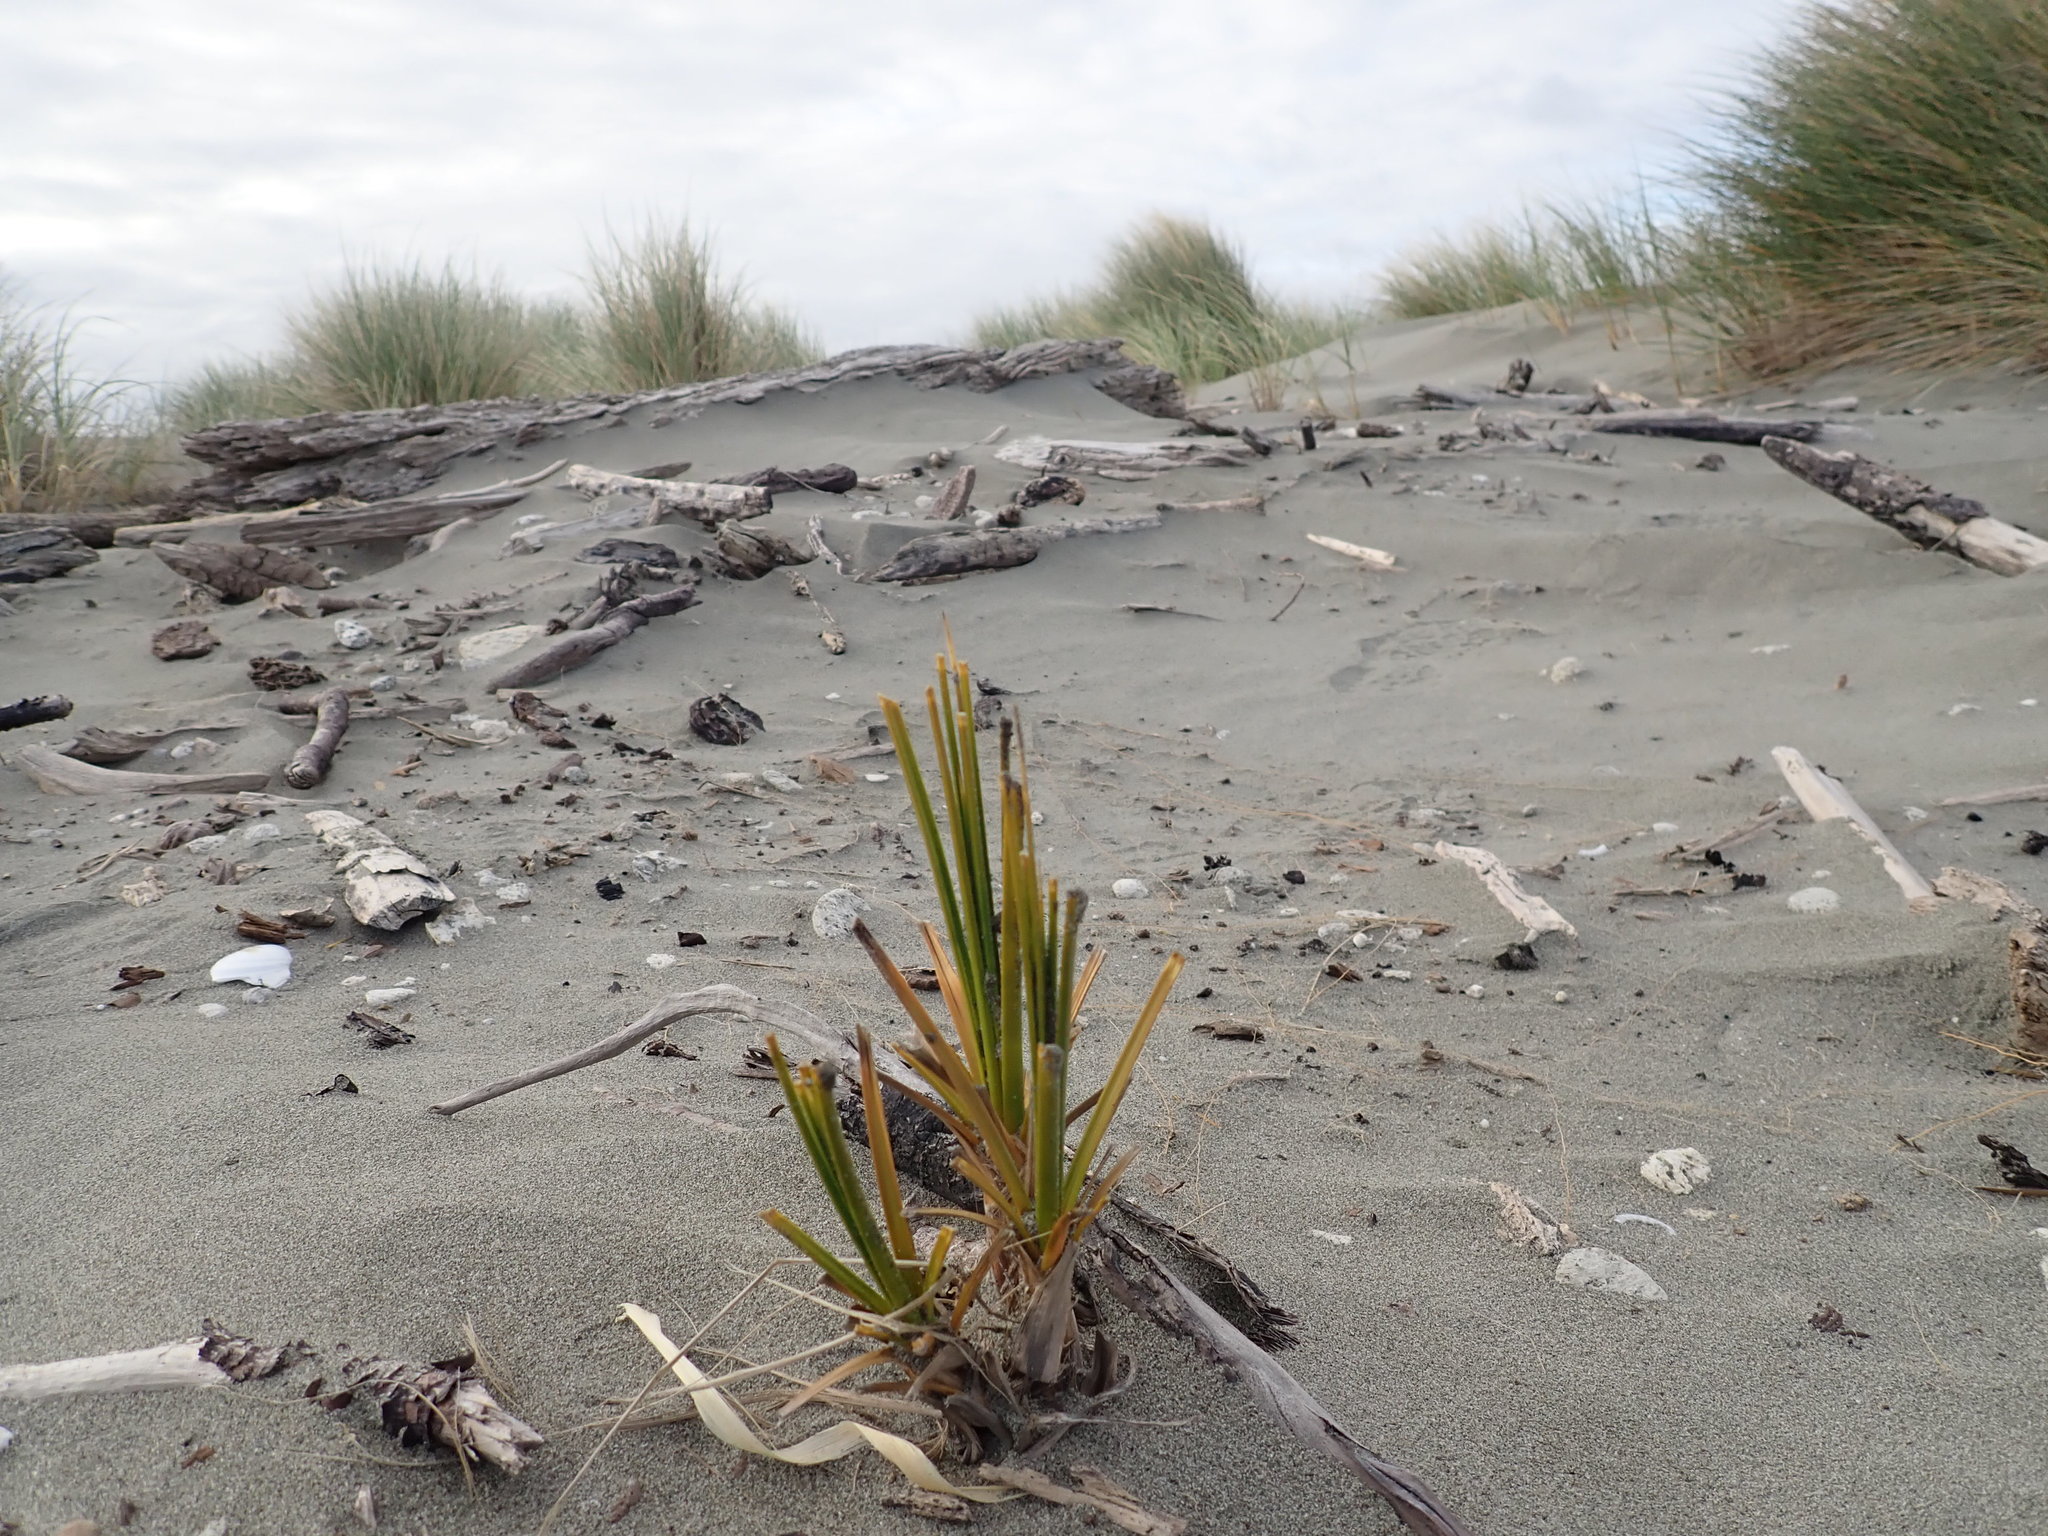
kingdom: Plantae
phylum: Tracheophyta
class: Liliopsida
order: Poales
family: Cyperaceae
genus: Ficinia
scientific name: Ficinia spiralis
